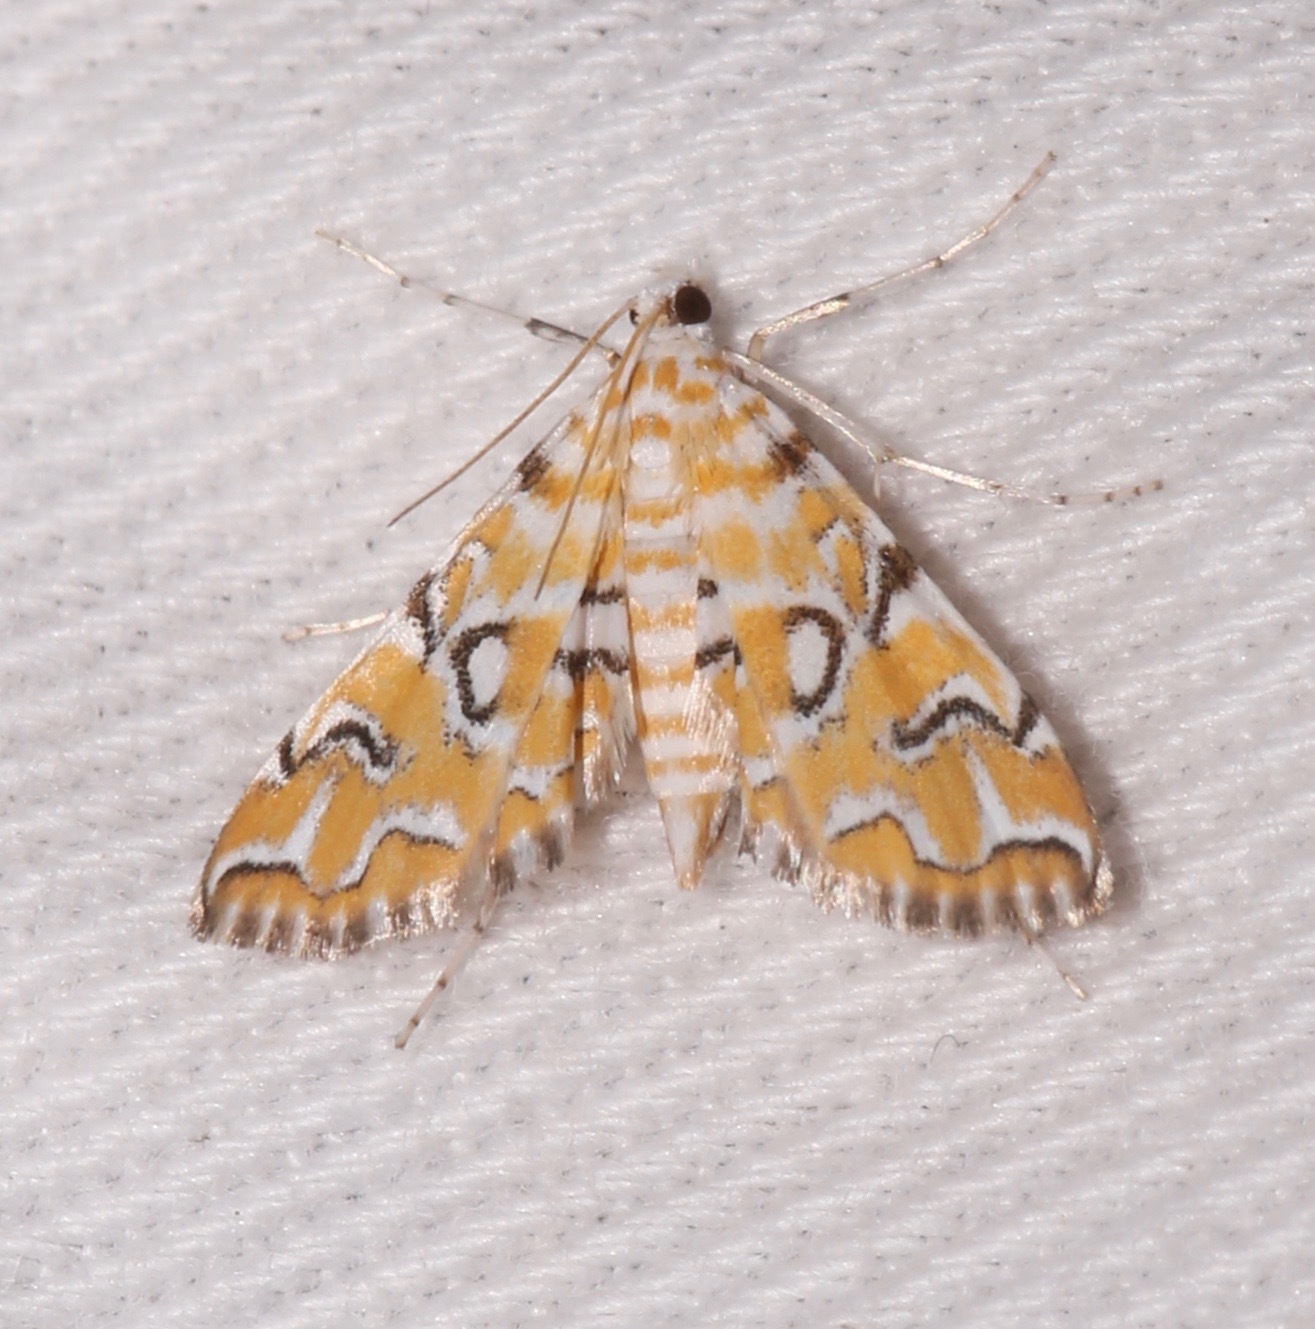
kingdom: Animalia
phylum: Arthropoda
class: Insecta
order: Lepidoptera
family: Crambidae
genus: Elophila
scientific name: Elophila icciusalis
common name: Pondside pyralid moth
